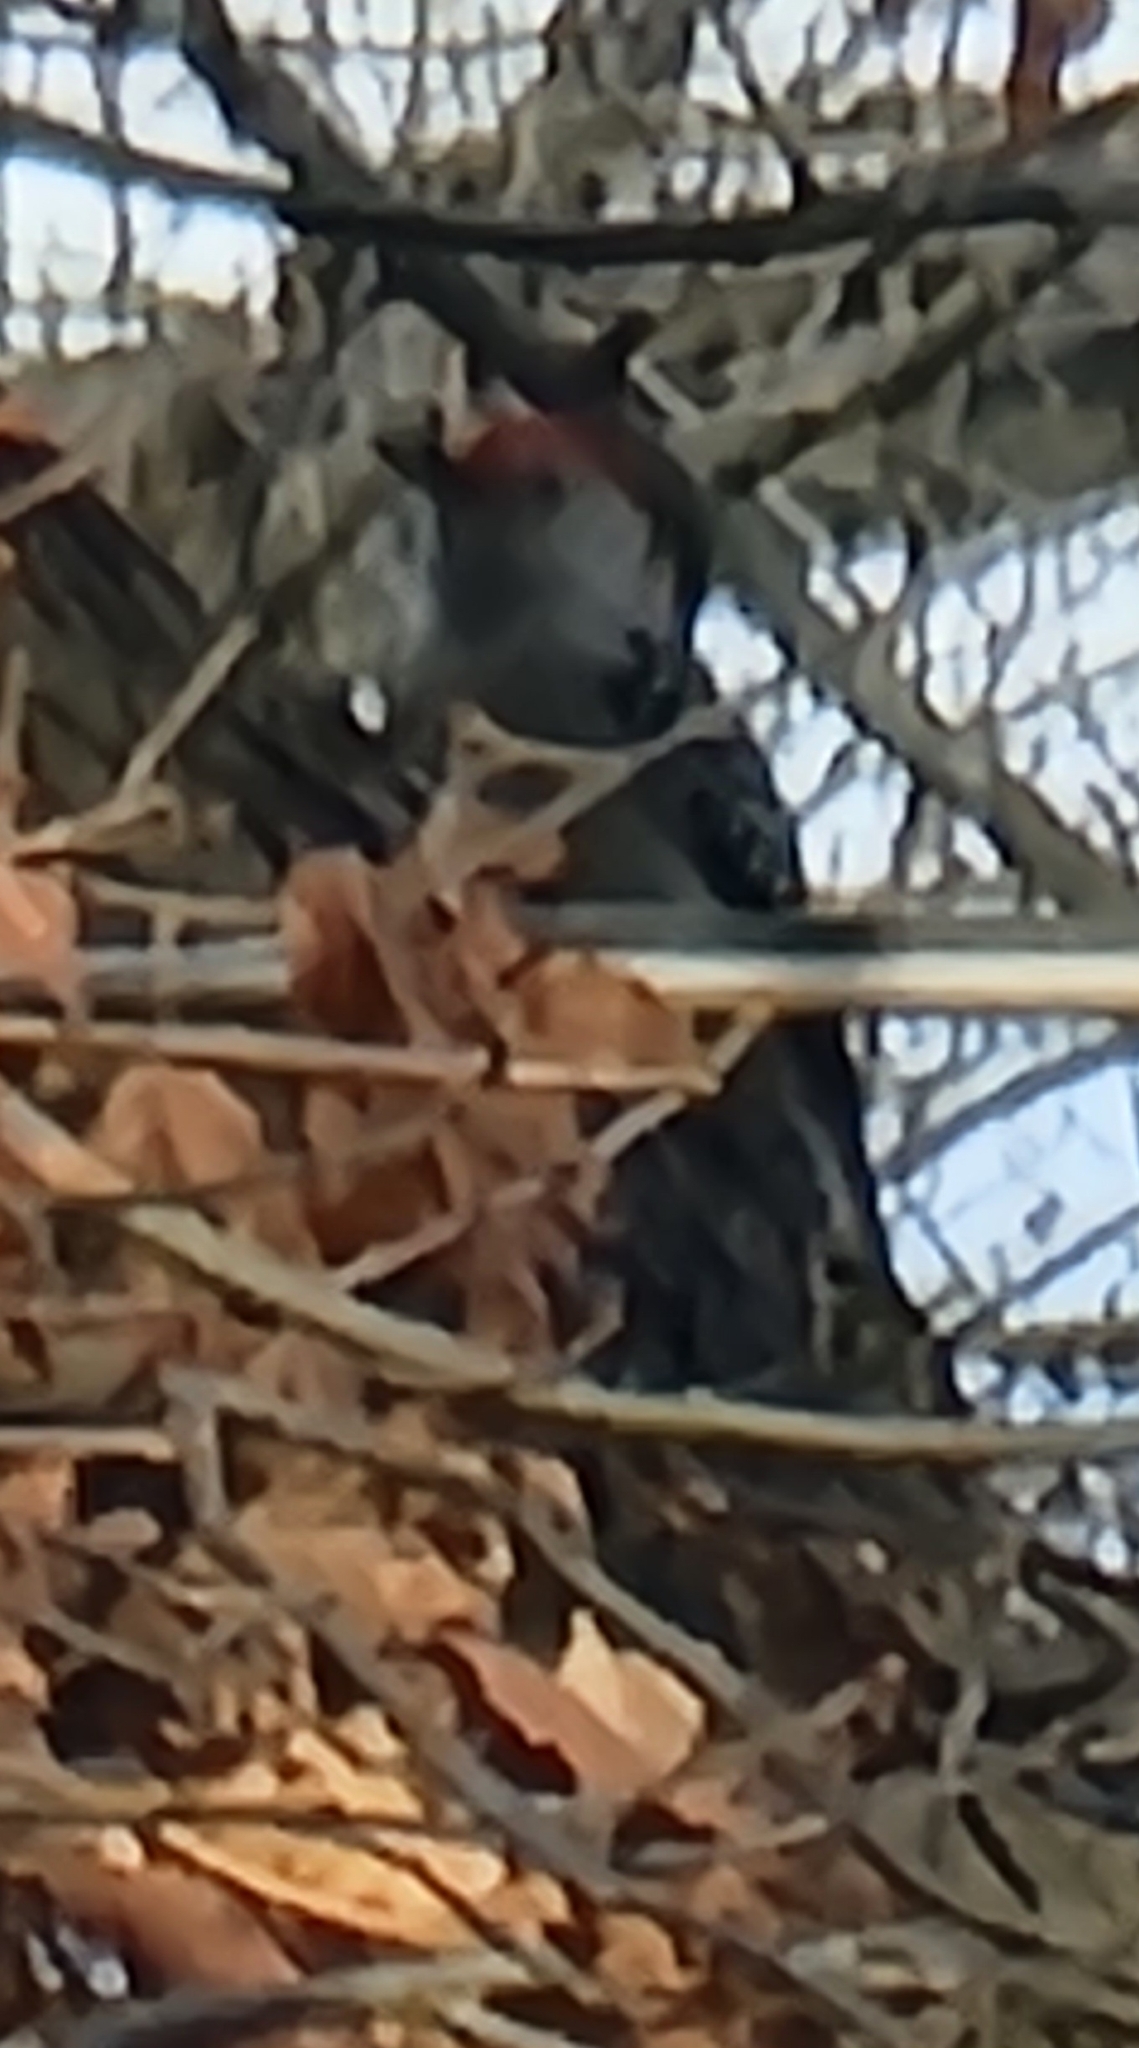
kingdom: Animalia
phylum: Chordata
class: Aves
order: Piciformes
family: Picidae
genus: Melanerpes
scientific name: Melanerpes carolinus
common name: Red-bellied woodpecker
